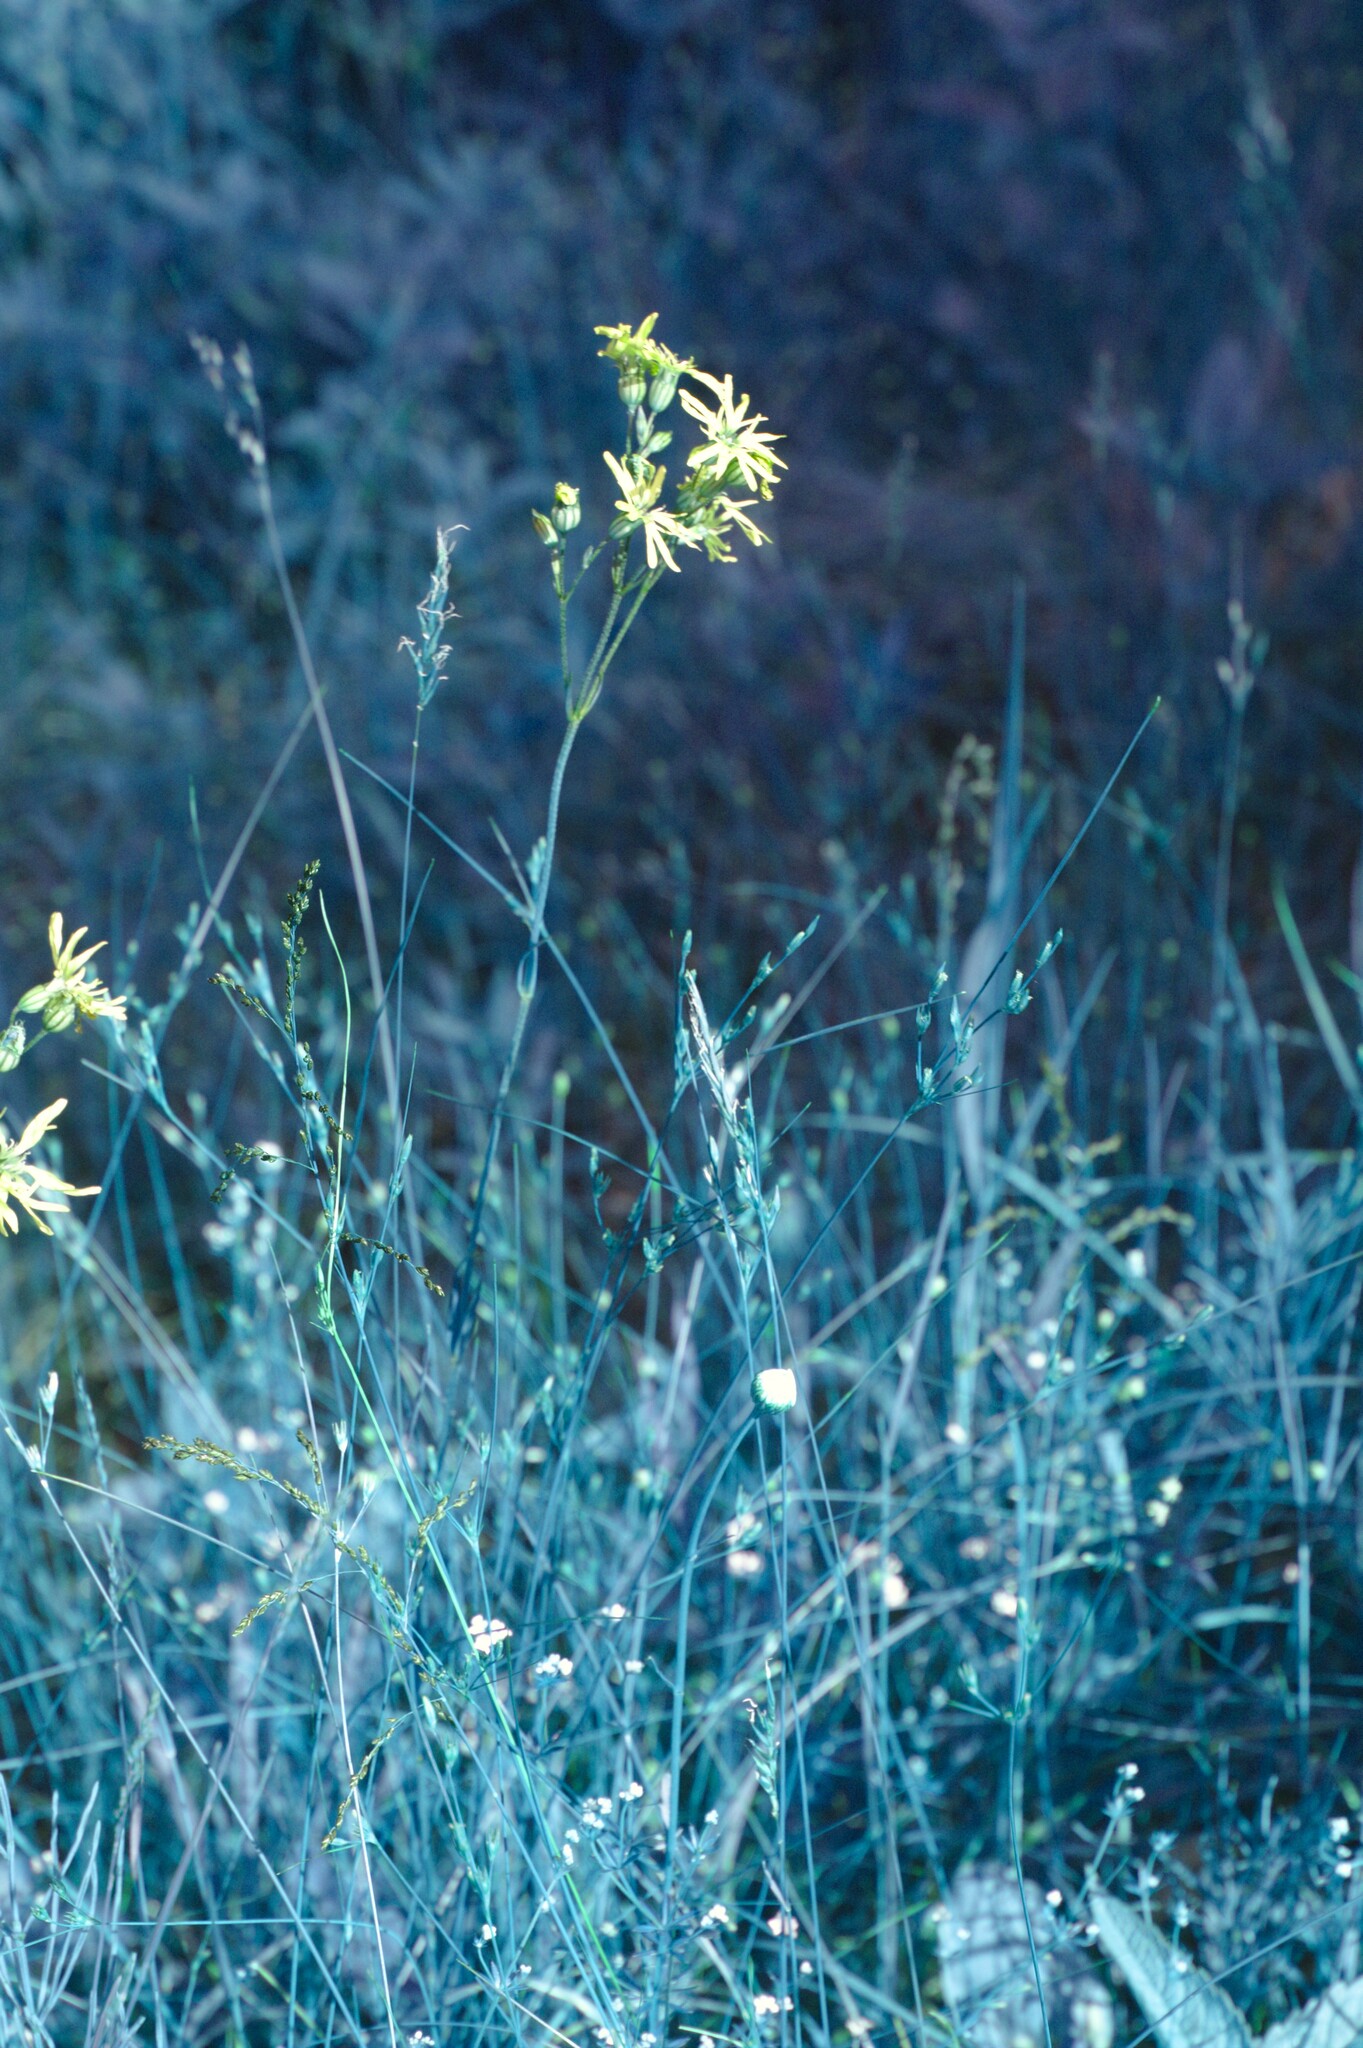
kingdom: Plantae
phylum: Tracheophyta
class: Magnoliopsida
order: Caryophyllales
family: Caryophyllaceae
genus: Silene
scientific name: Silene flos-cuculi
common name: Ragged-robin
